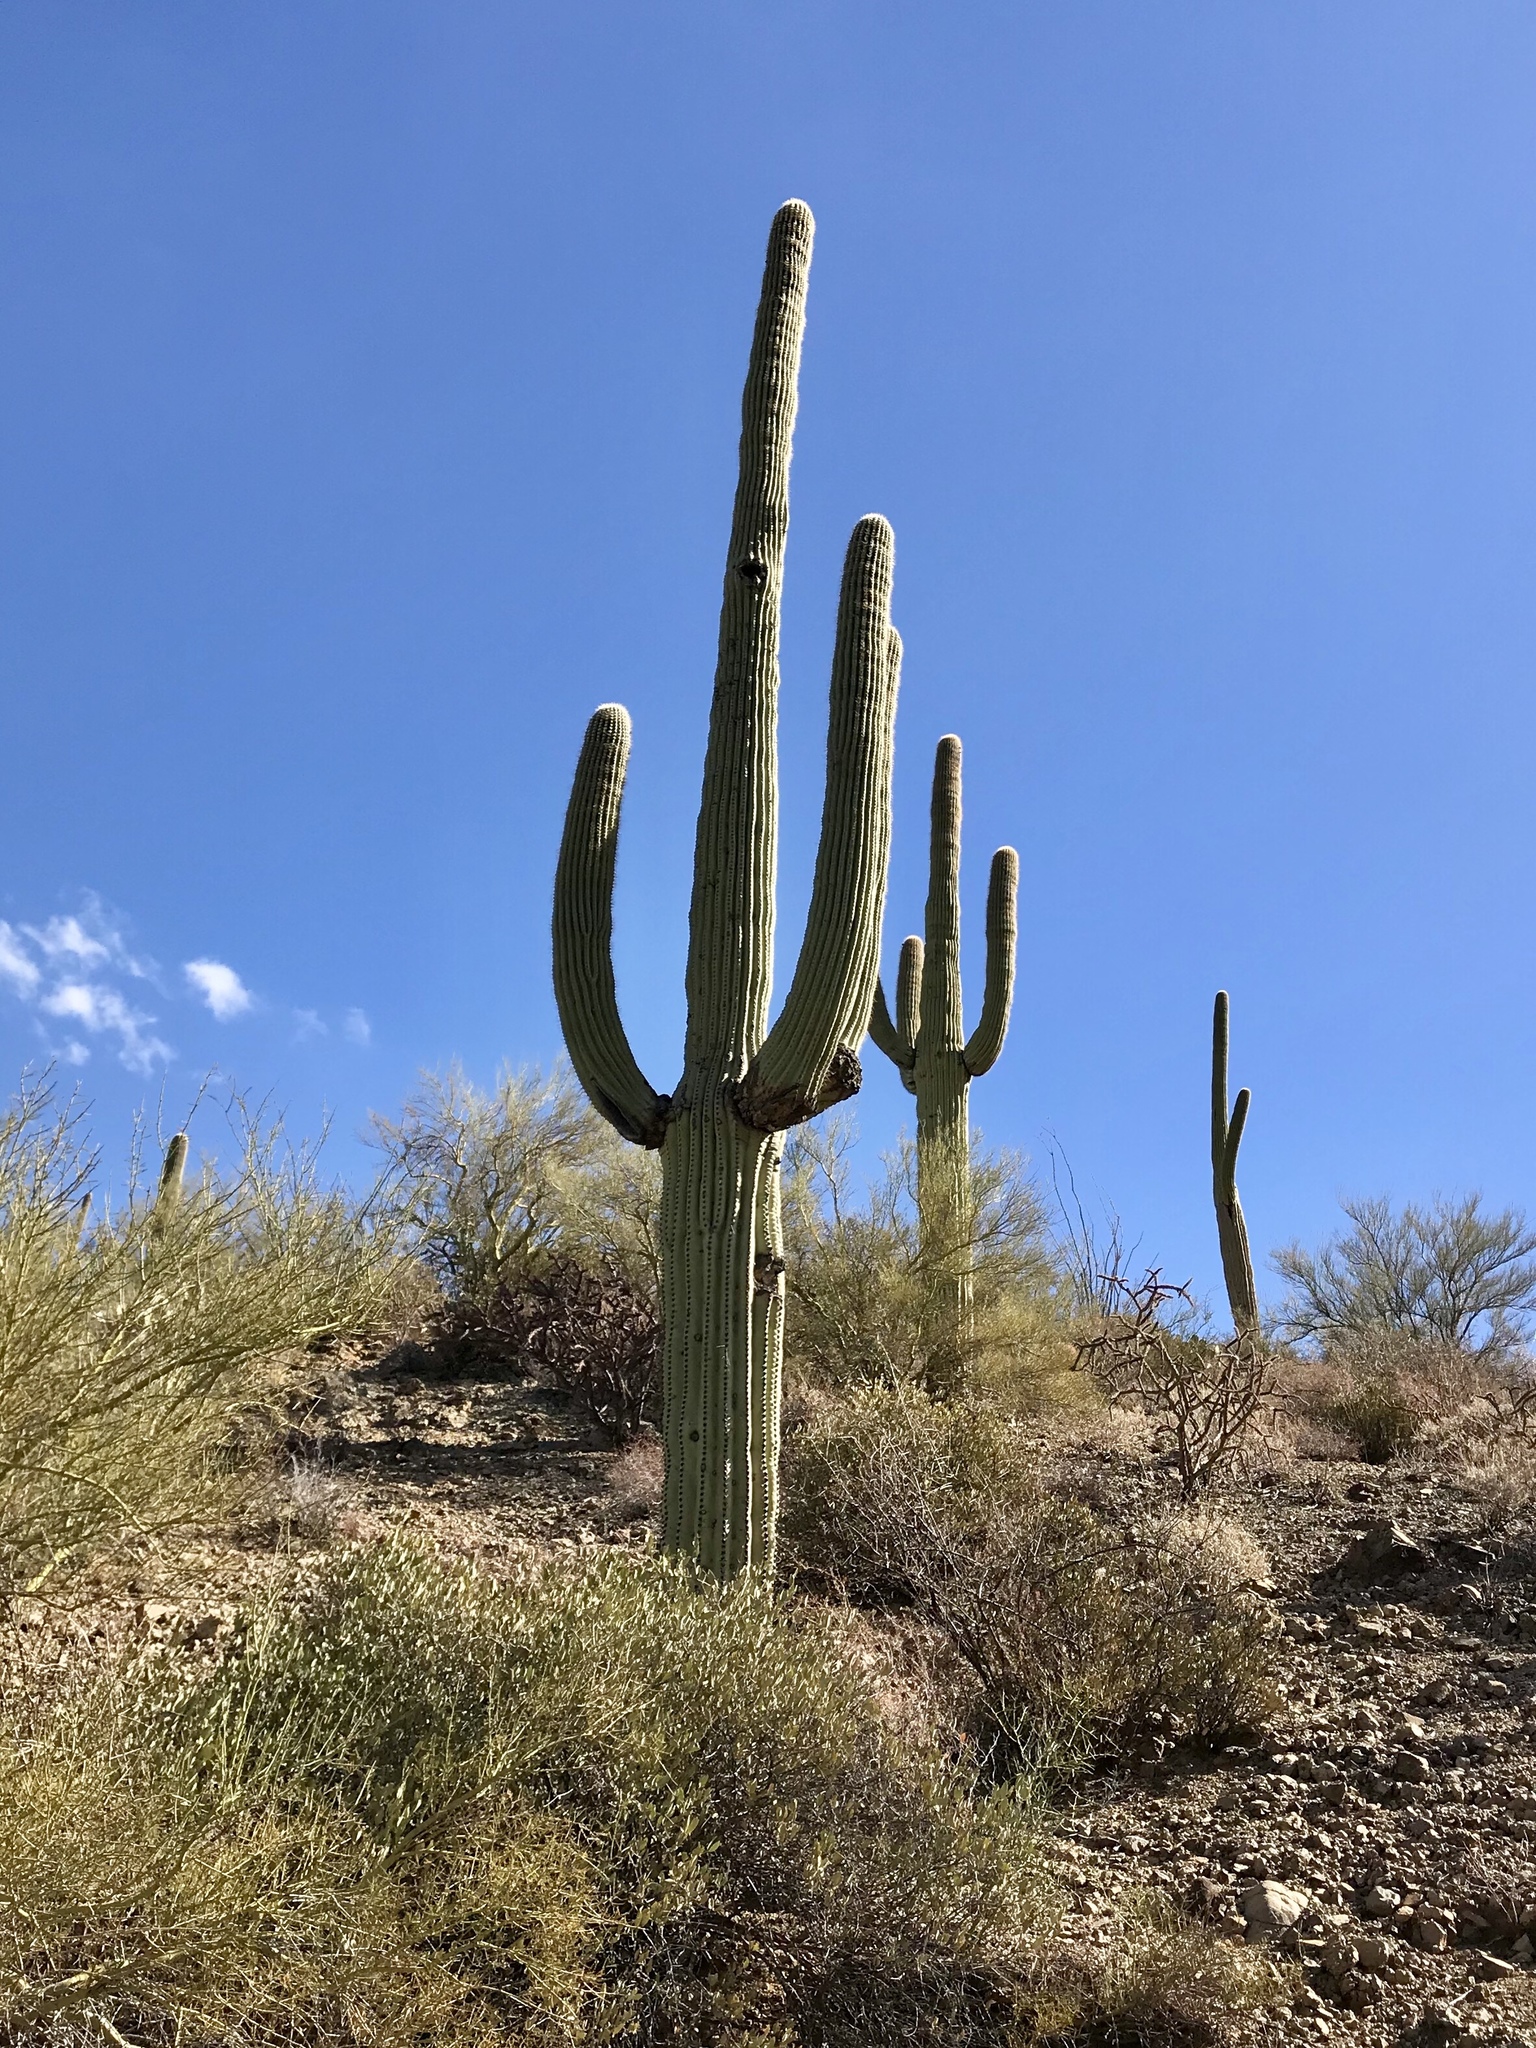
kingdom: Plantae
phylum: Tracheophyta
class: Magnoliopsida
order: Caryophyllales
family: Cactaceae
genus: Carnegiea
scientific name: Carnegiea gigantea
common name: Saguaro
